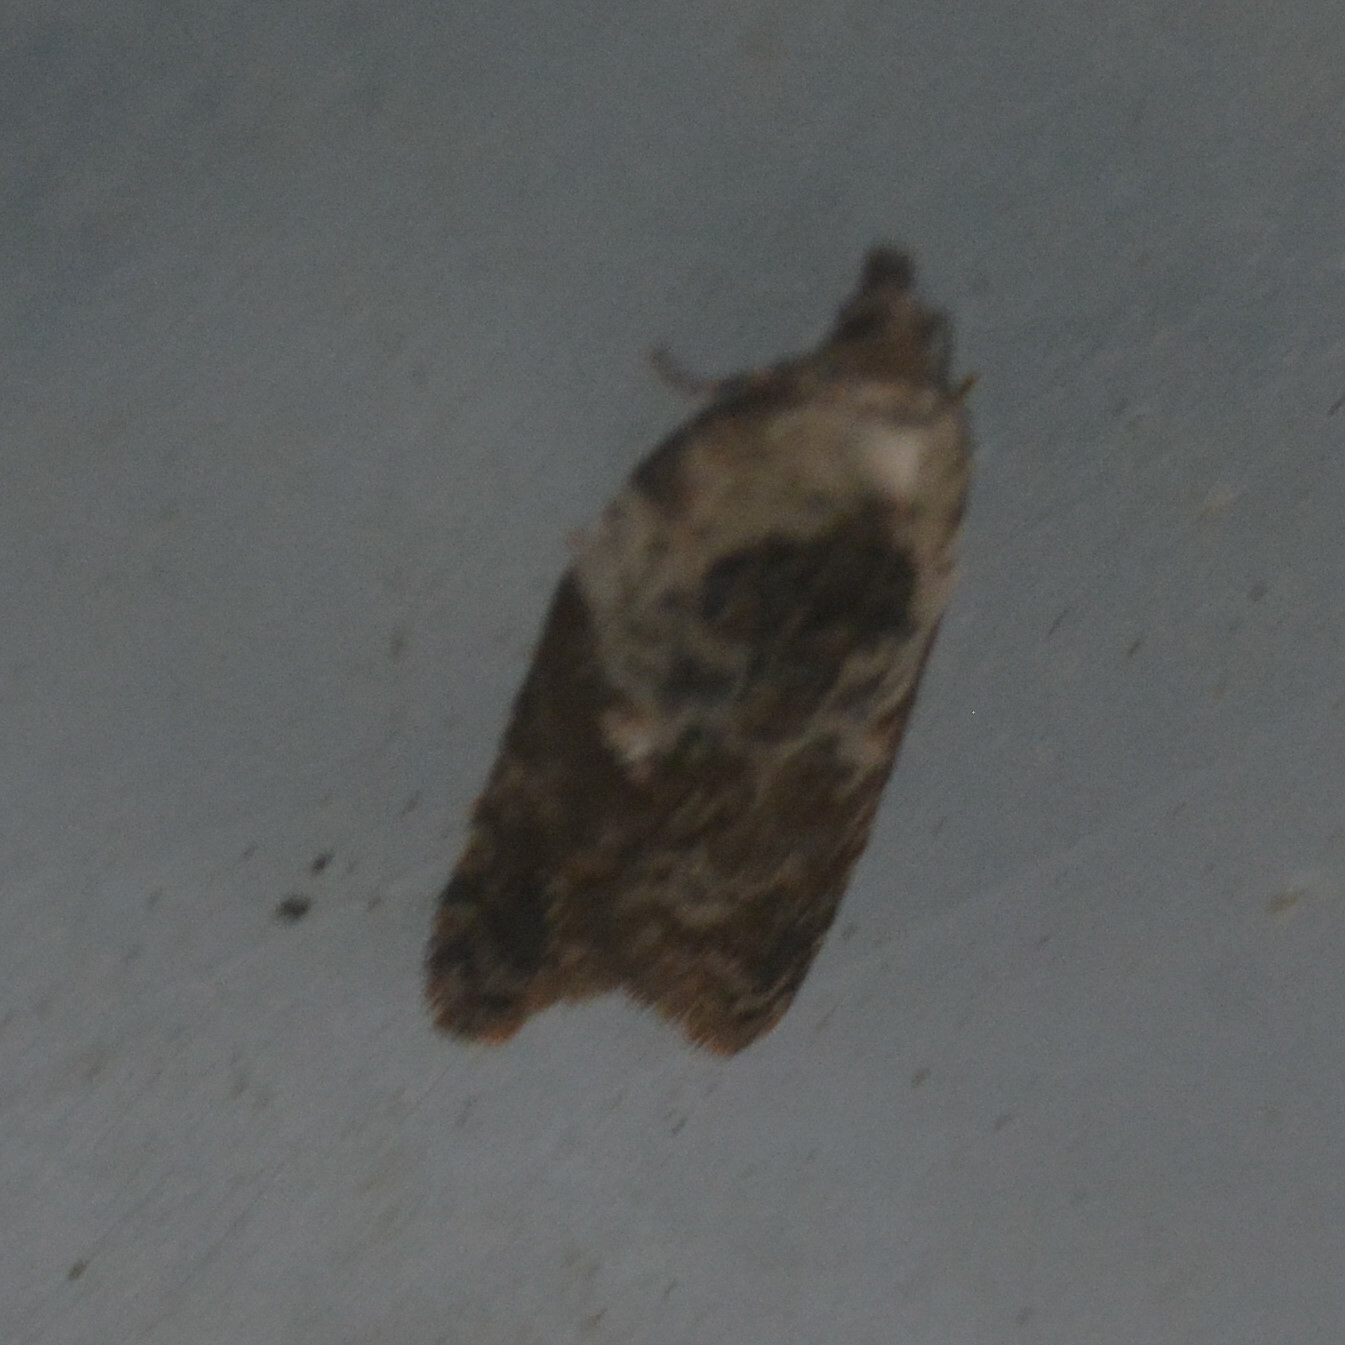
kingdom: Animalia
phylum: Arthropoda
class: Insecta
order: Lepidoptera
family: Tortricidae
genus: Acleris
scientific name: Acleris variegana
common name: Garden rose tortrix
